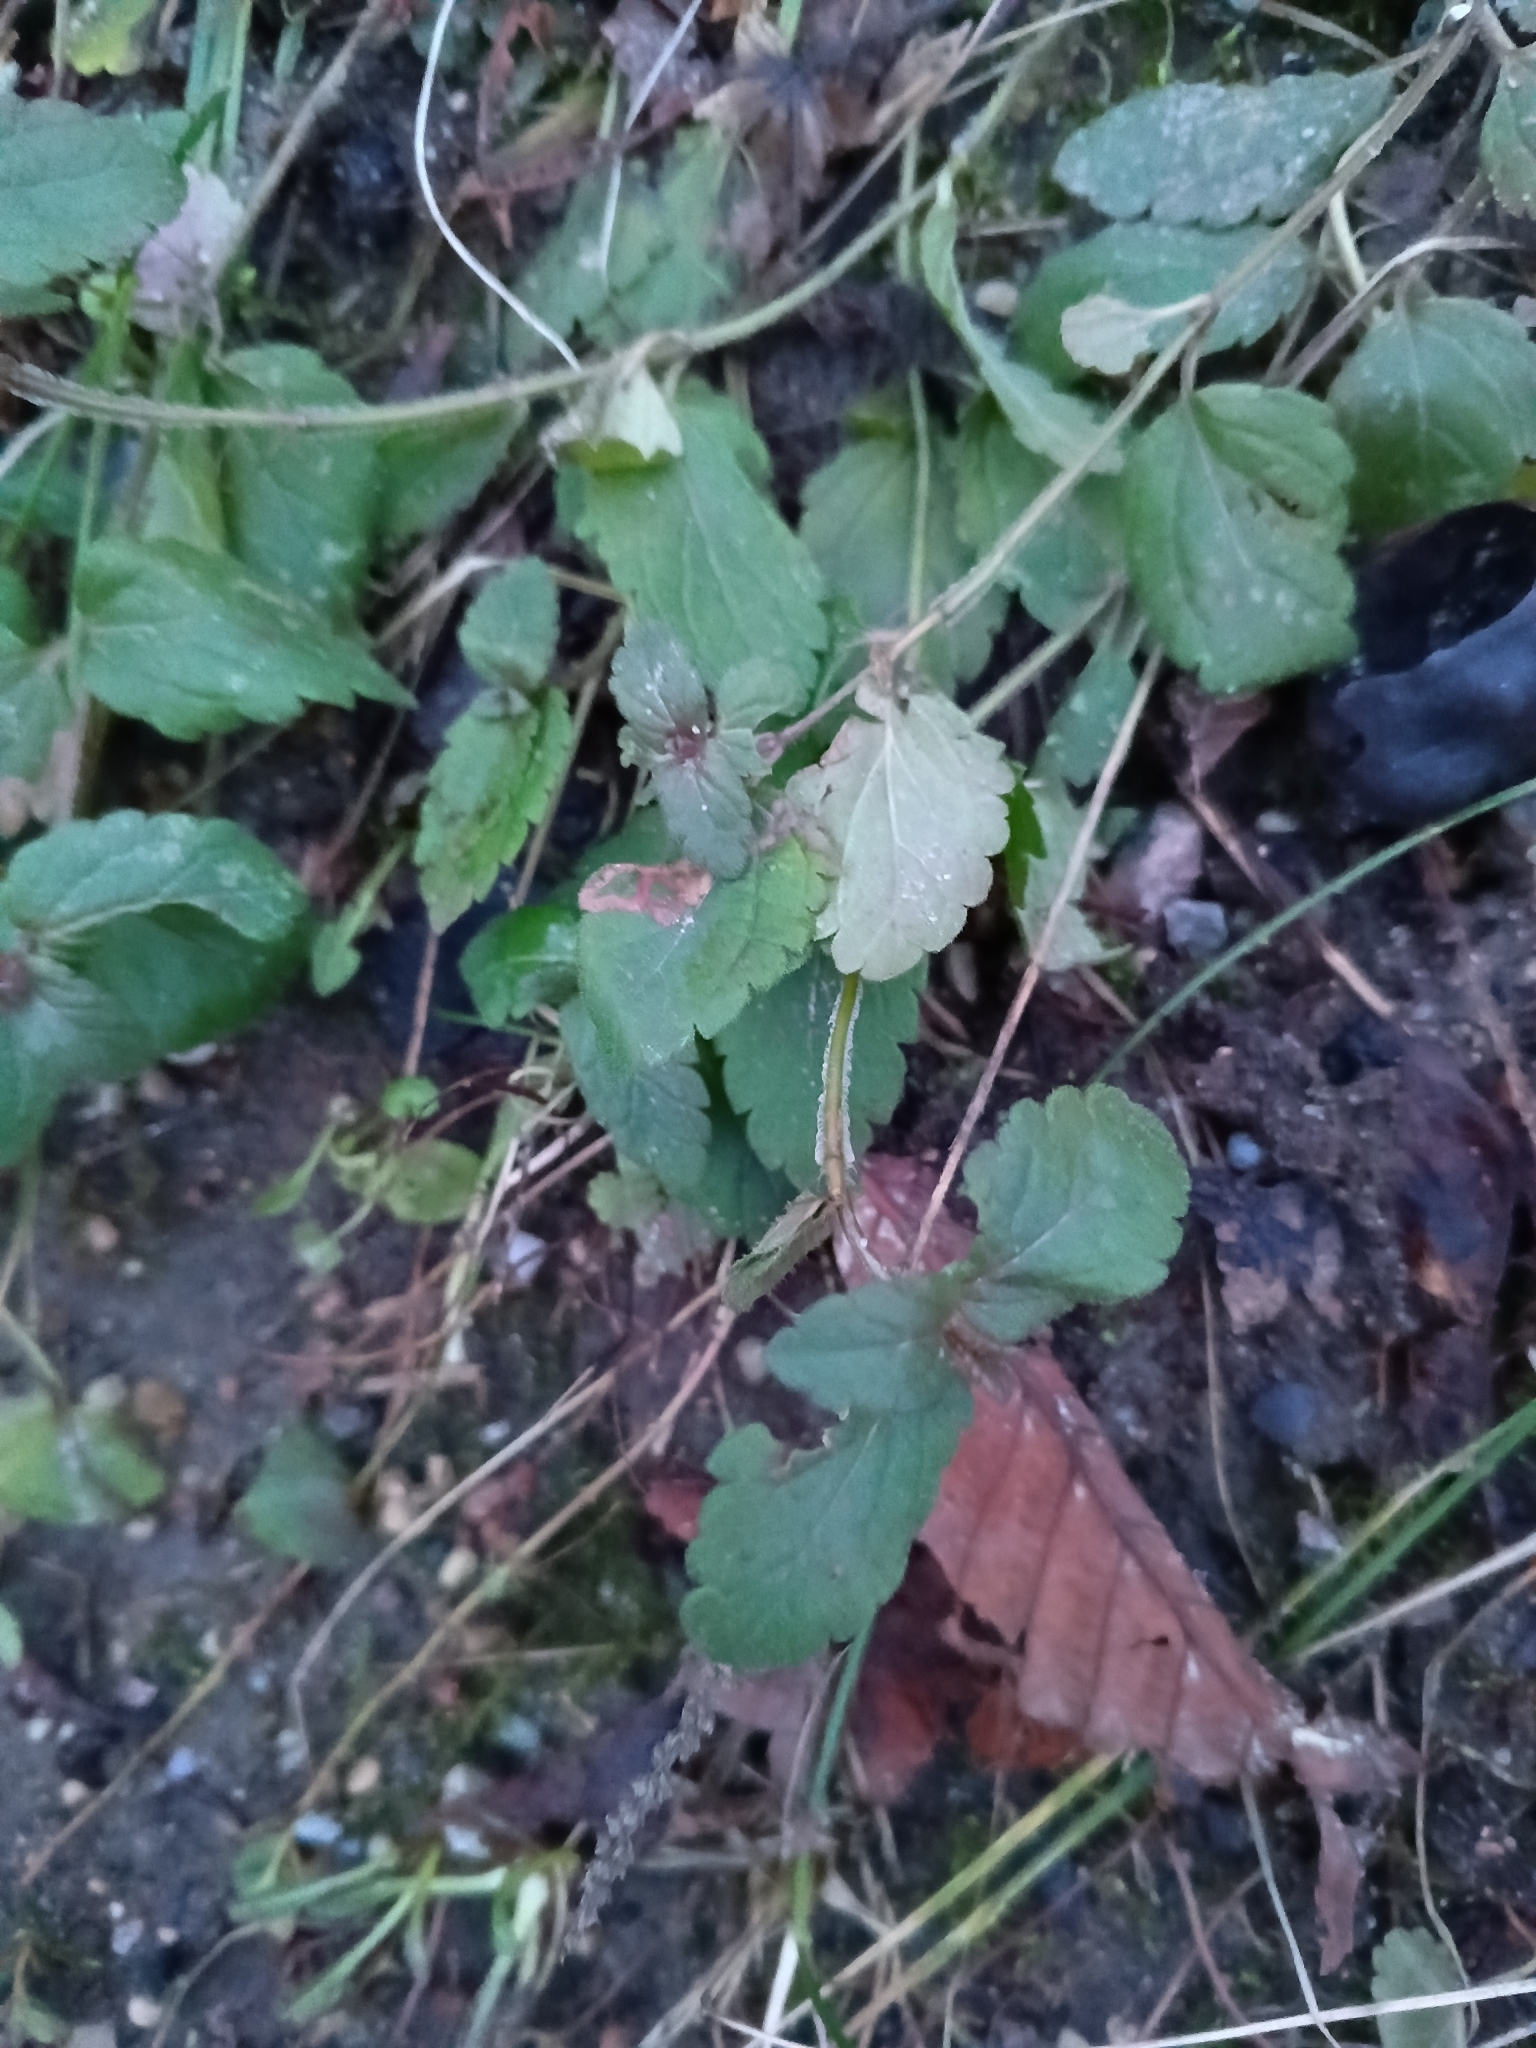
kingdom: Plantae
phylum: Tracheophyta
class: Magnoliopsida
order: Lamiales
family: Plantaginaceae
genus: Veronica
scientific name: Veronica chamaedrys
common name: Germander speedwell
